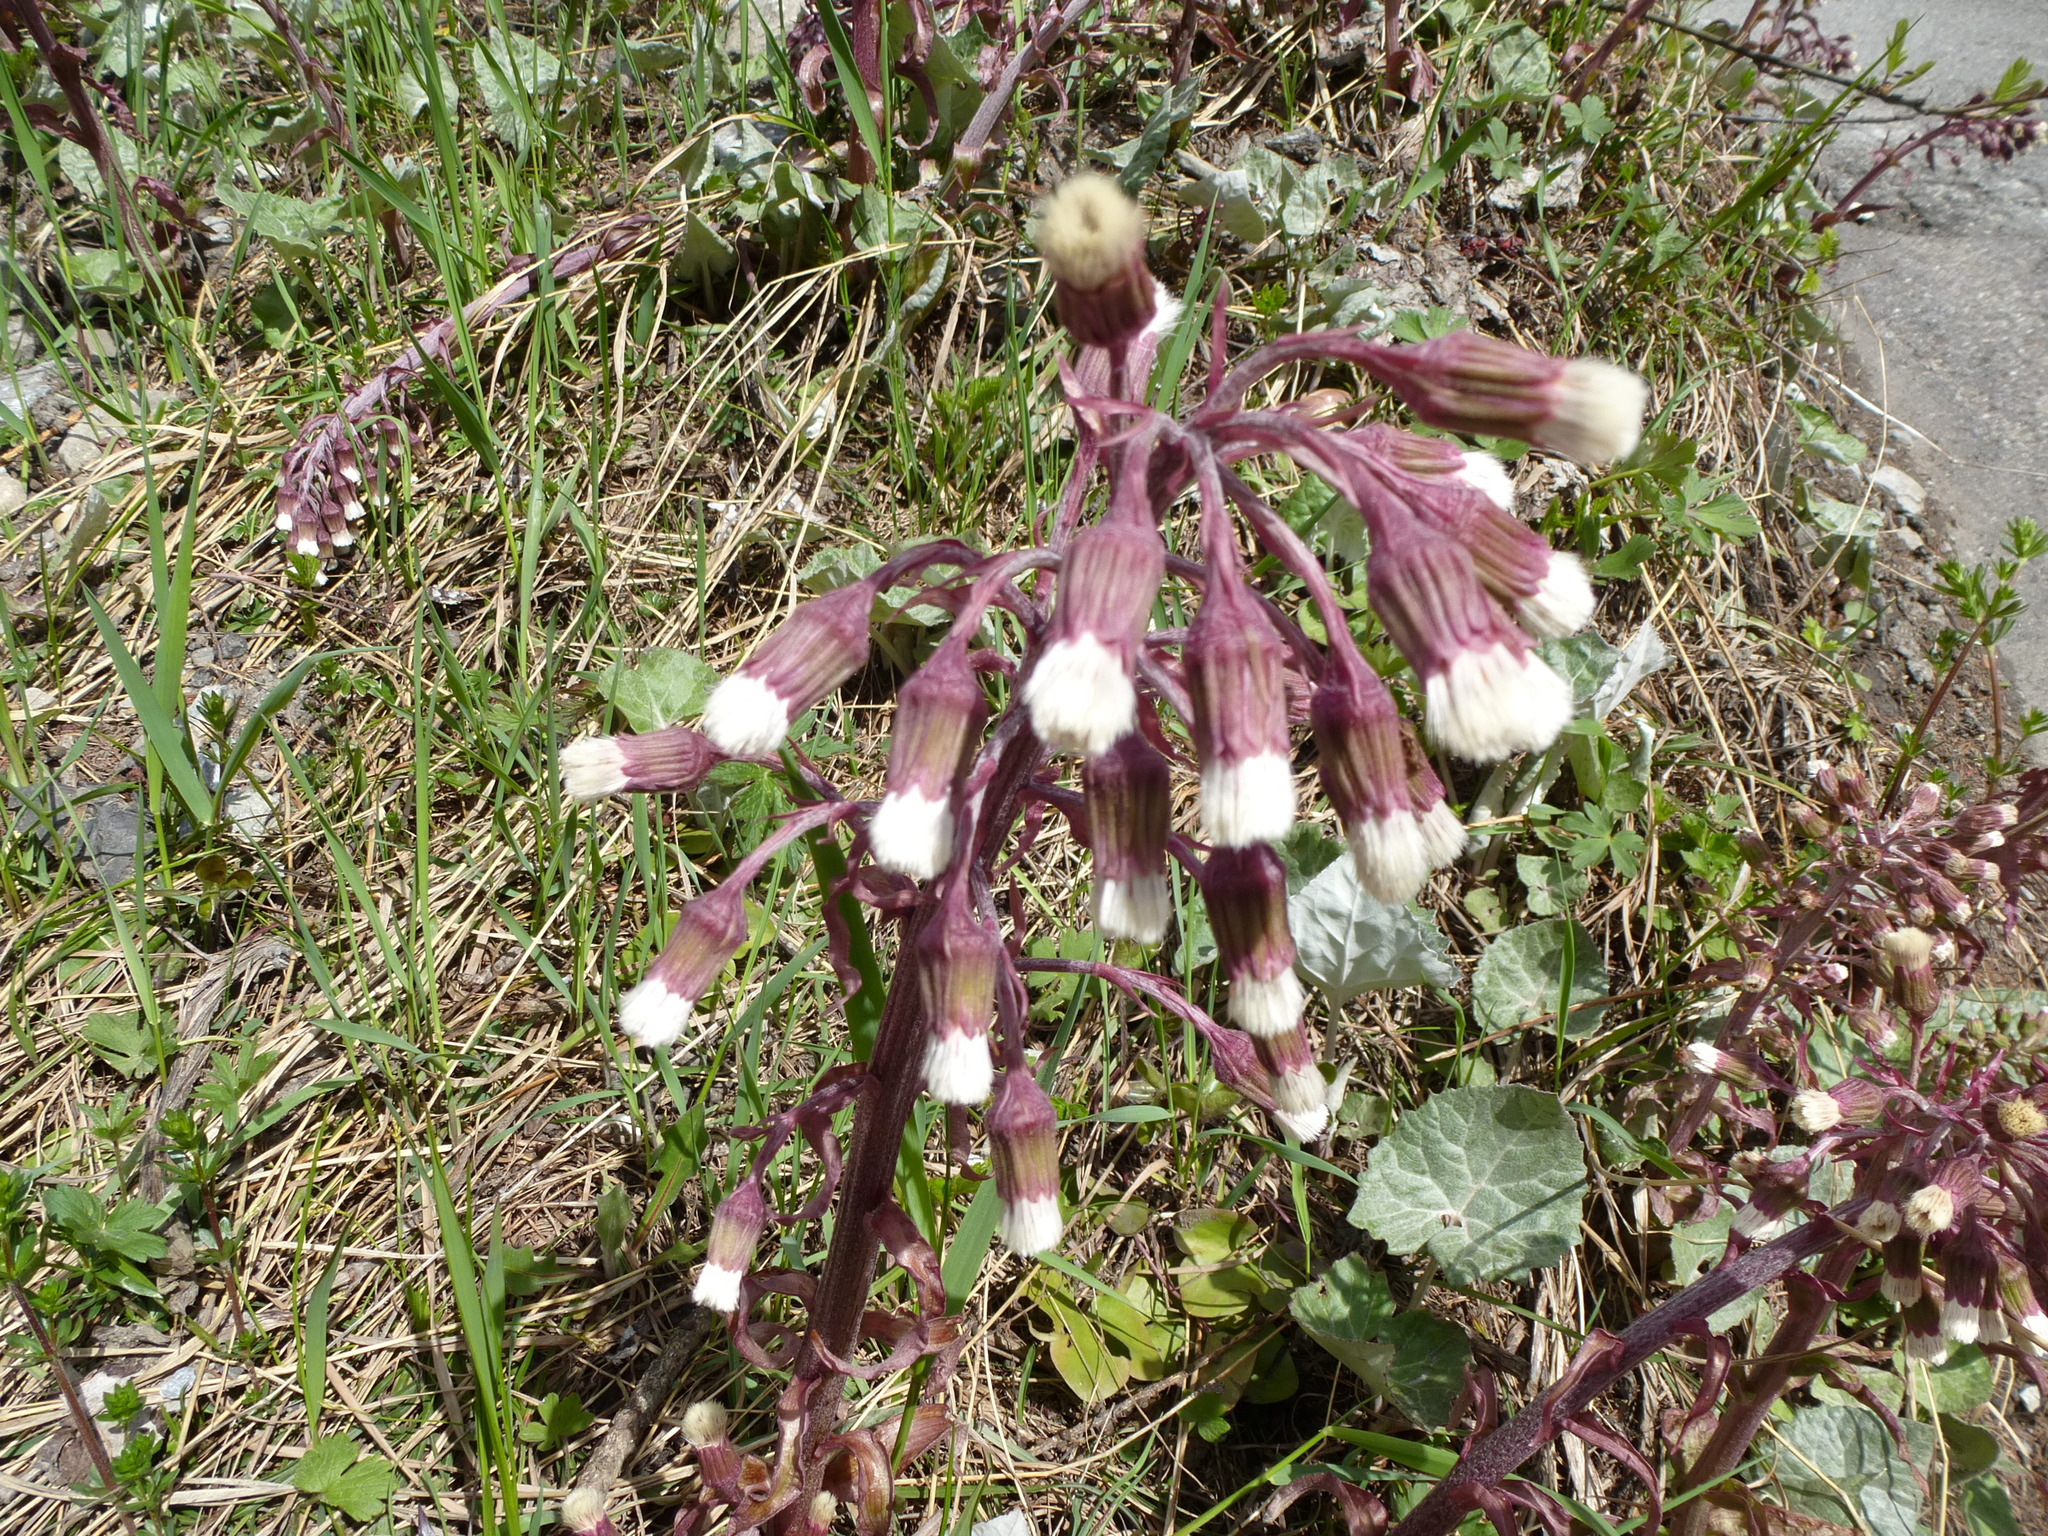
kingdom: Plantae
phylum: Tracheophyta
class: Magnoliopsida
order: Asterales
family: Asteraceae
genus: Petasites
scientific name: Petasites paradoxus
